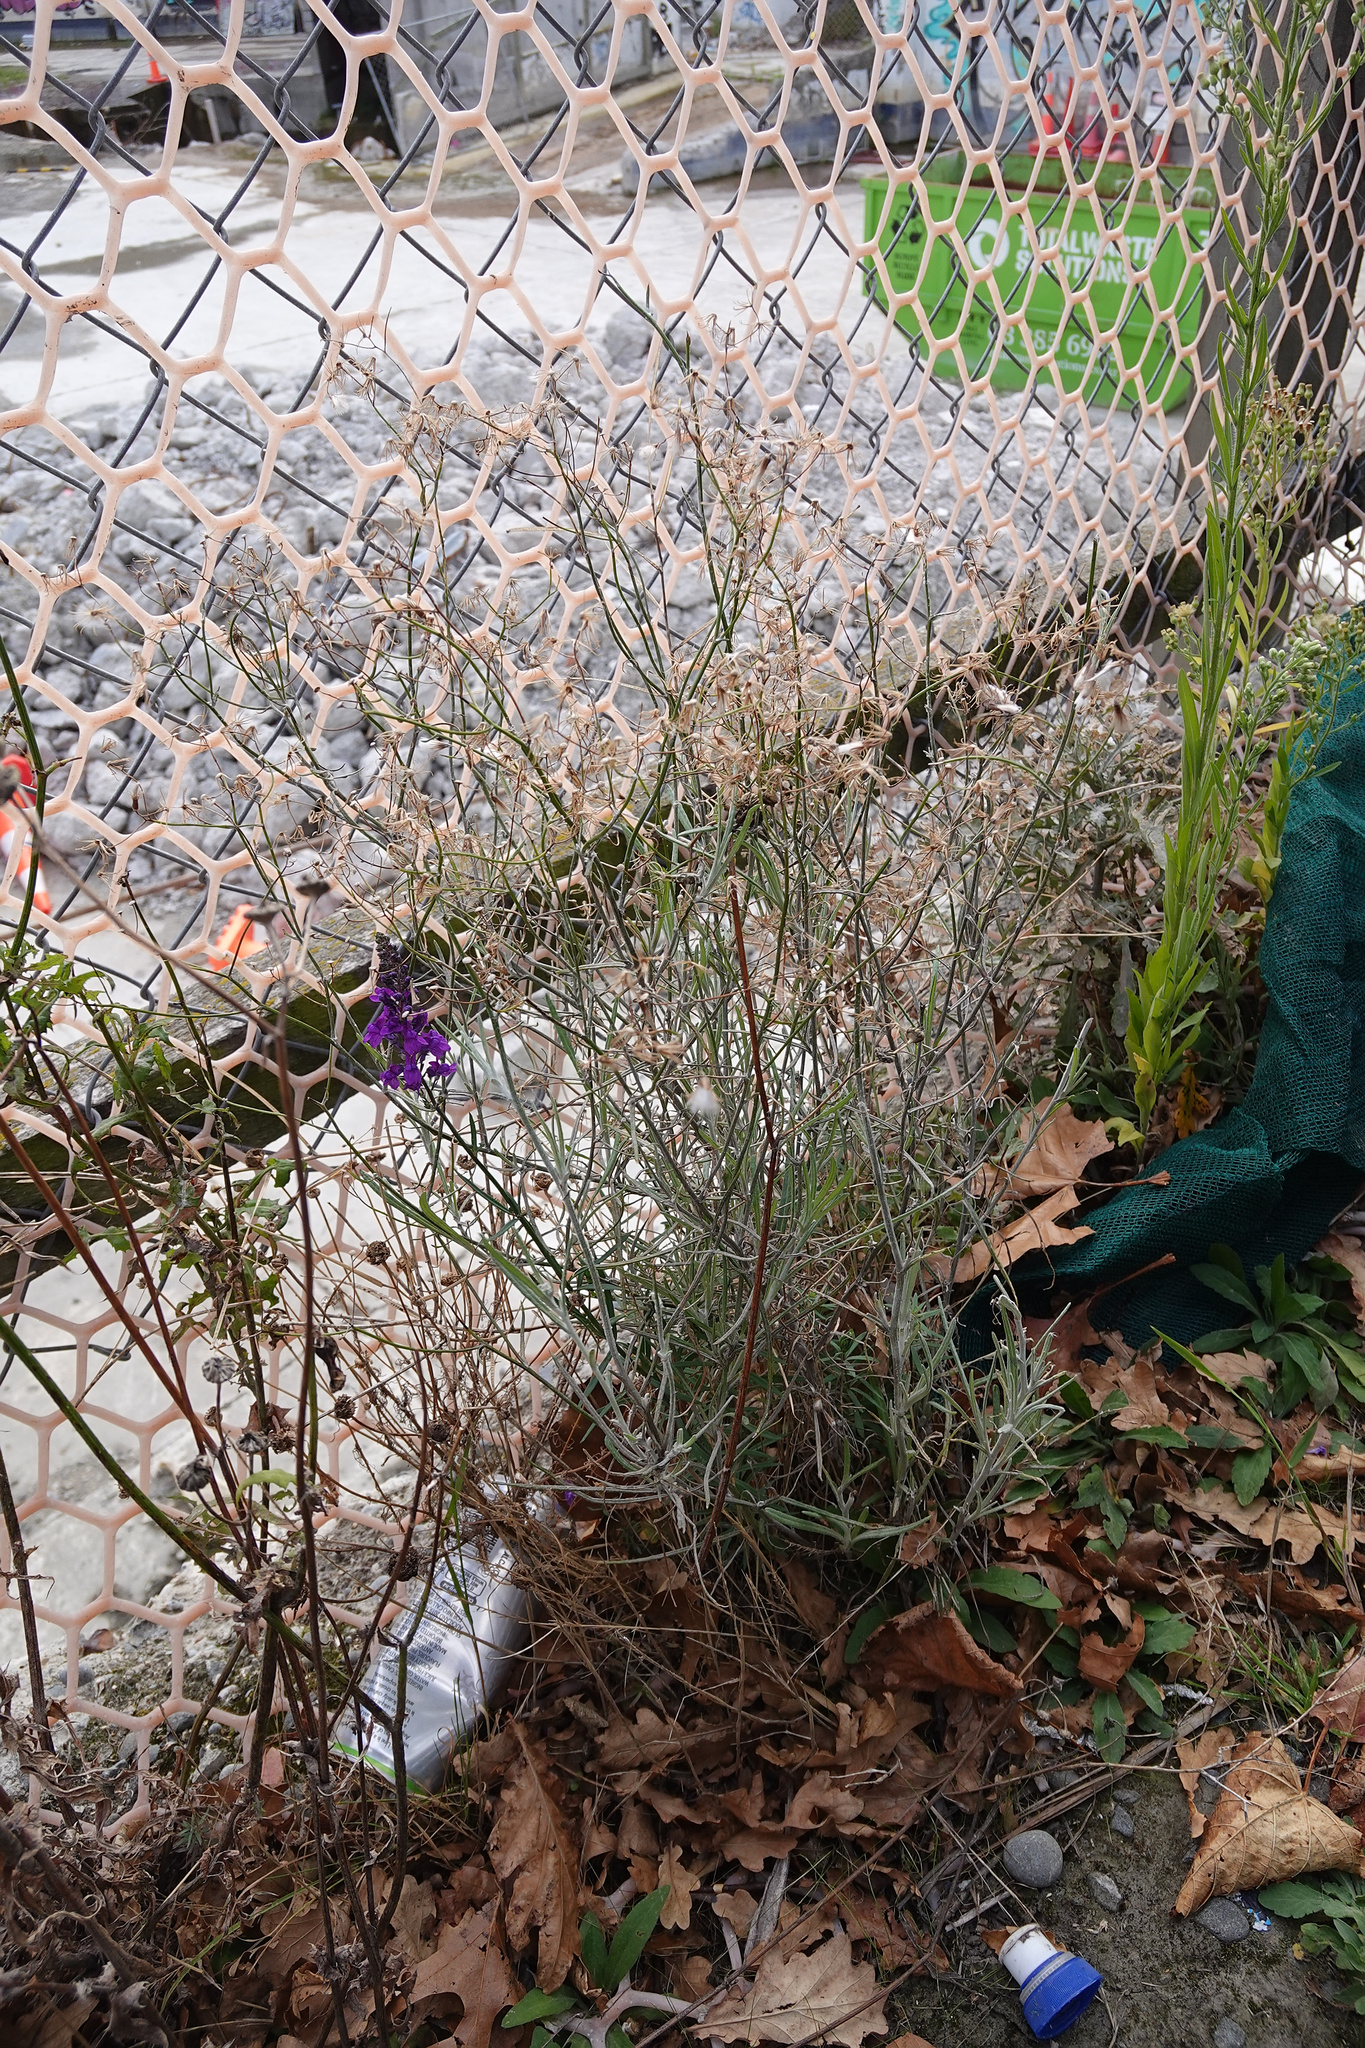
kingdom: Plantae
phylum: Tracheophyta
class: Magnoliopsida
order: Asterales
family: Asteraceae
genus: Senecio
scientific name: Senecio quadridentatus
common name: Cotton fireweed
